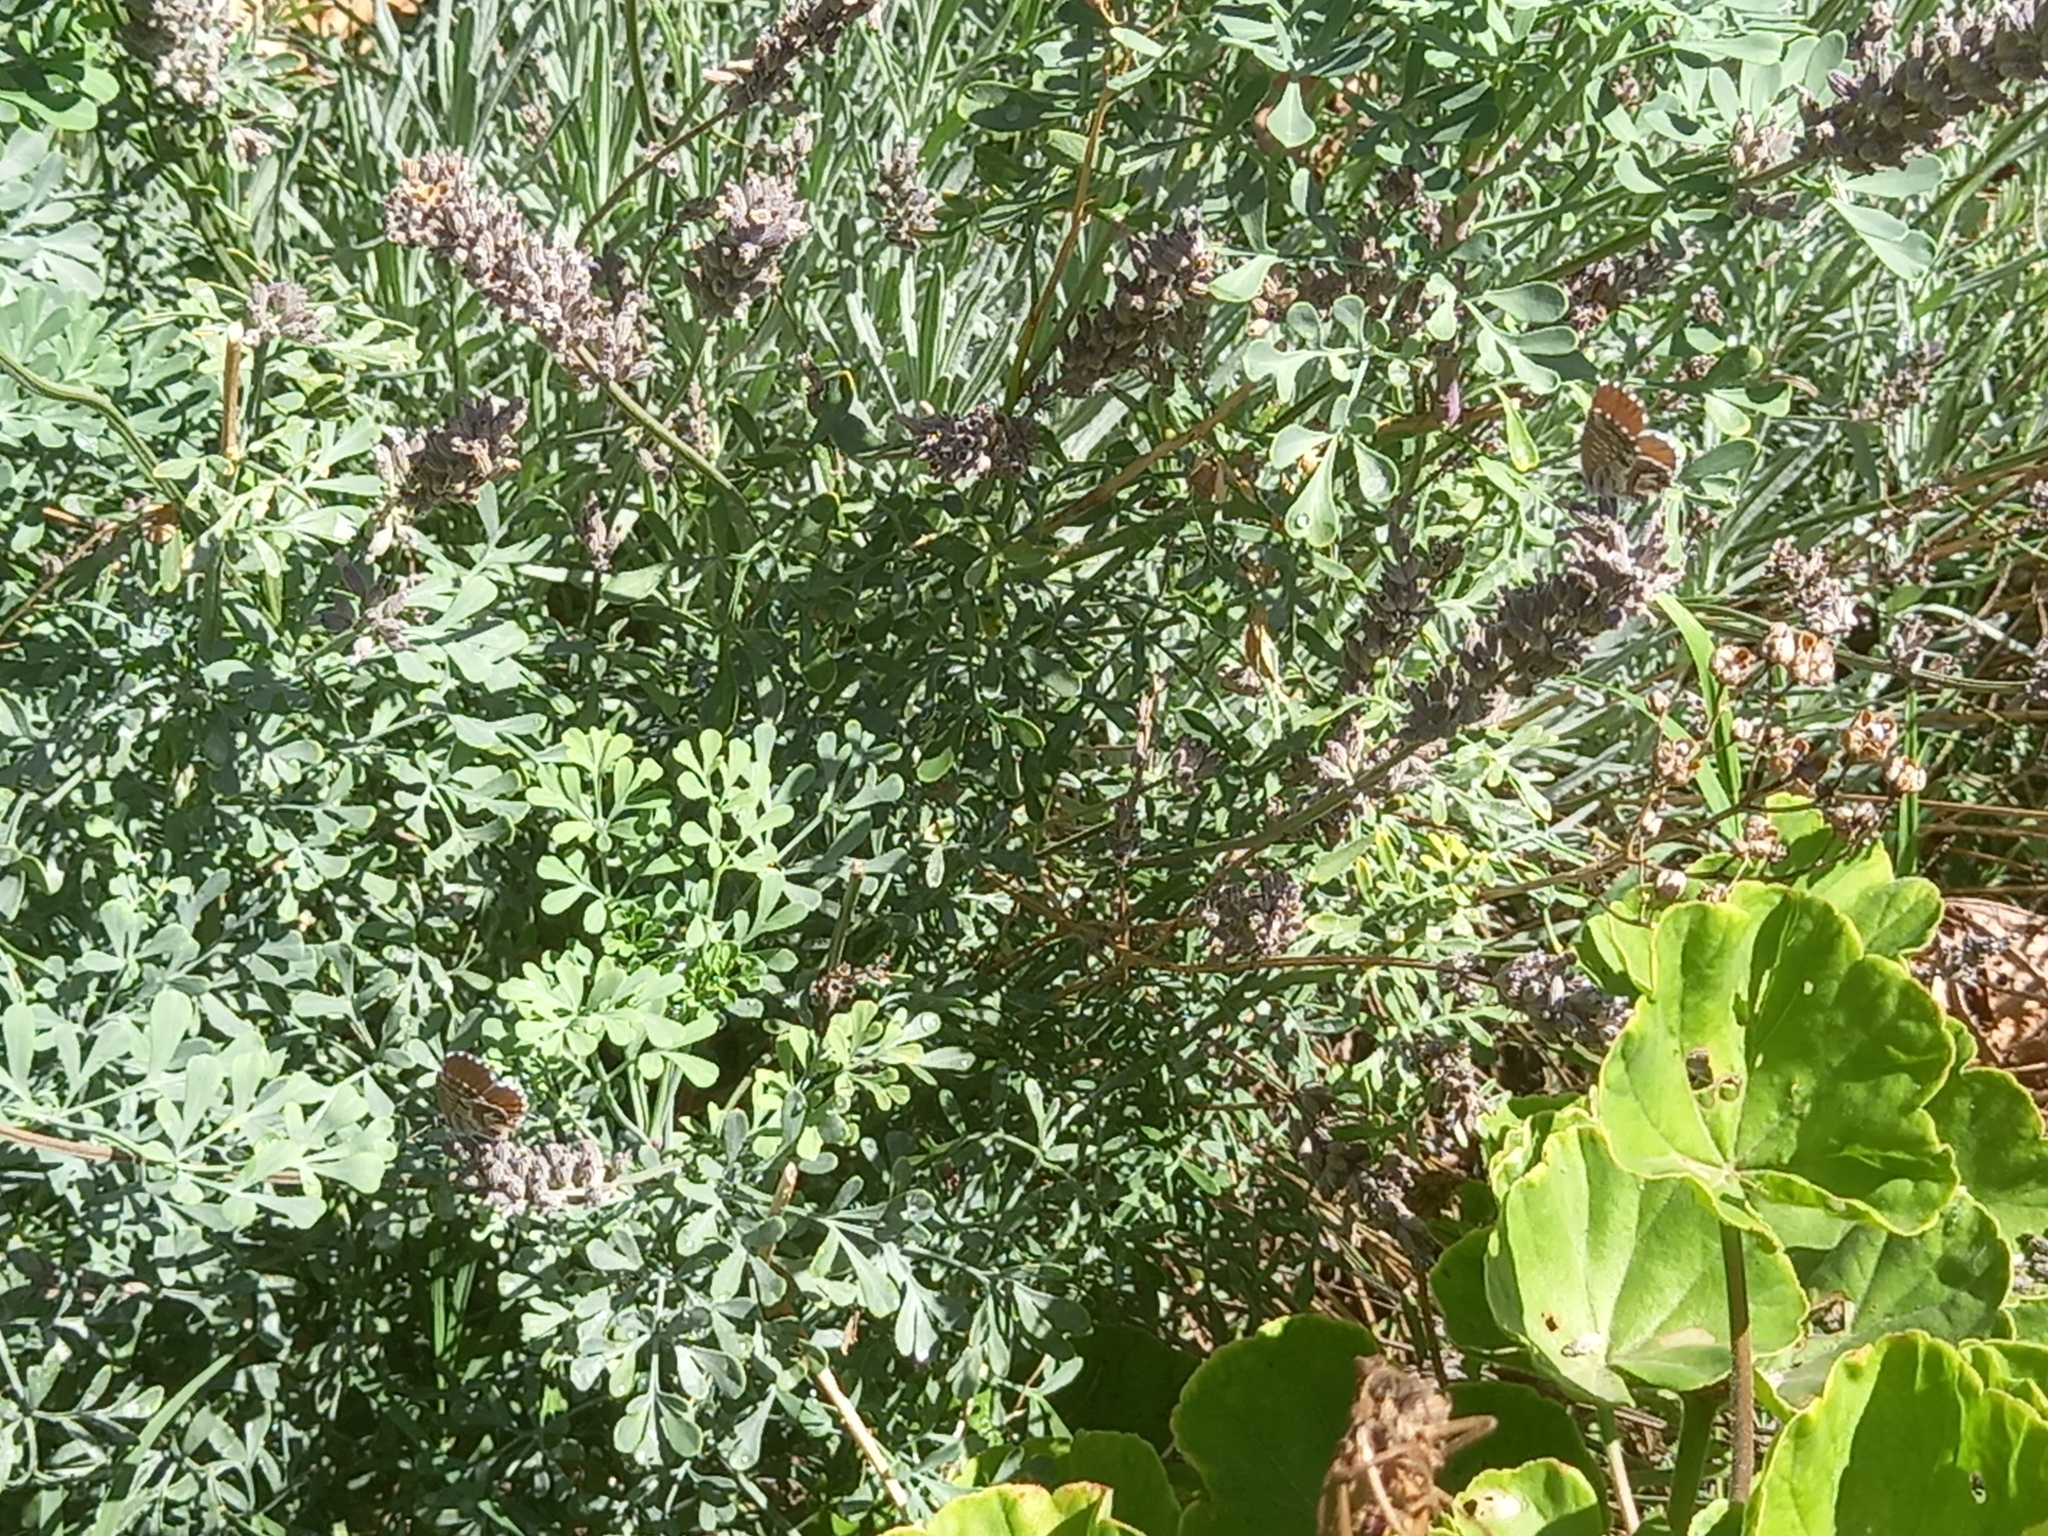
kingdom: Animalia
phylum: Arthropoda
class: Insecta
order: Lepidoptera
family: Lycaenidae
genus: Cacyreus
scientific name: Cacyreus marshalli
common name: Geranium bronze
